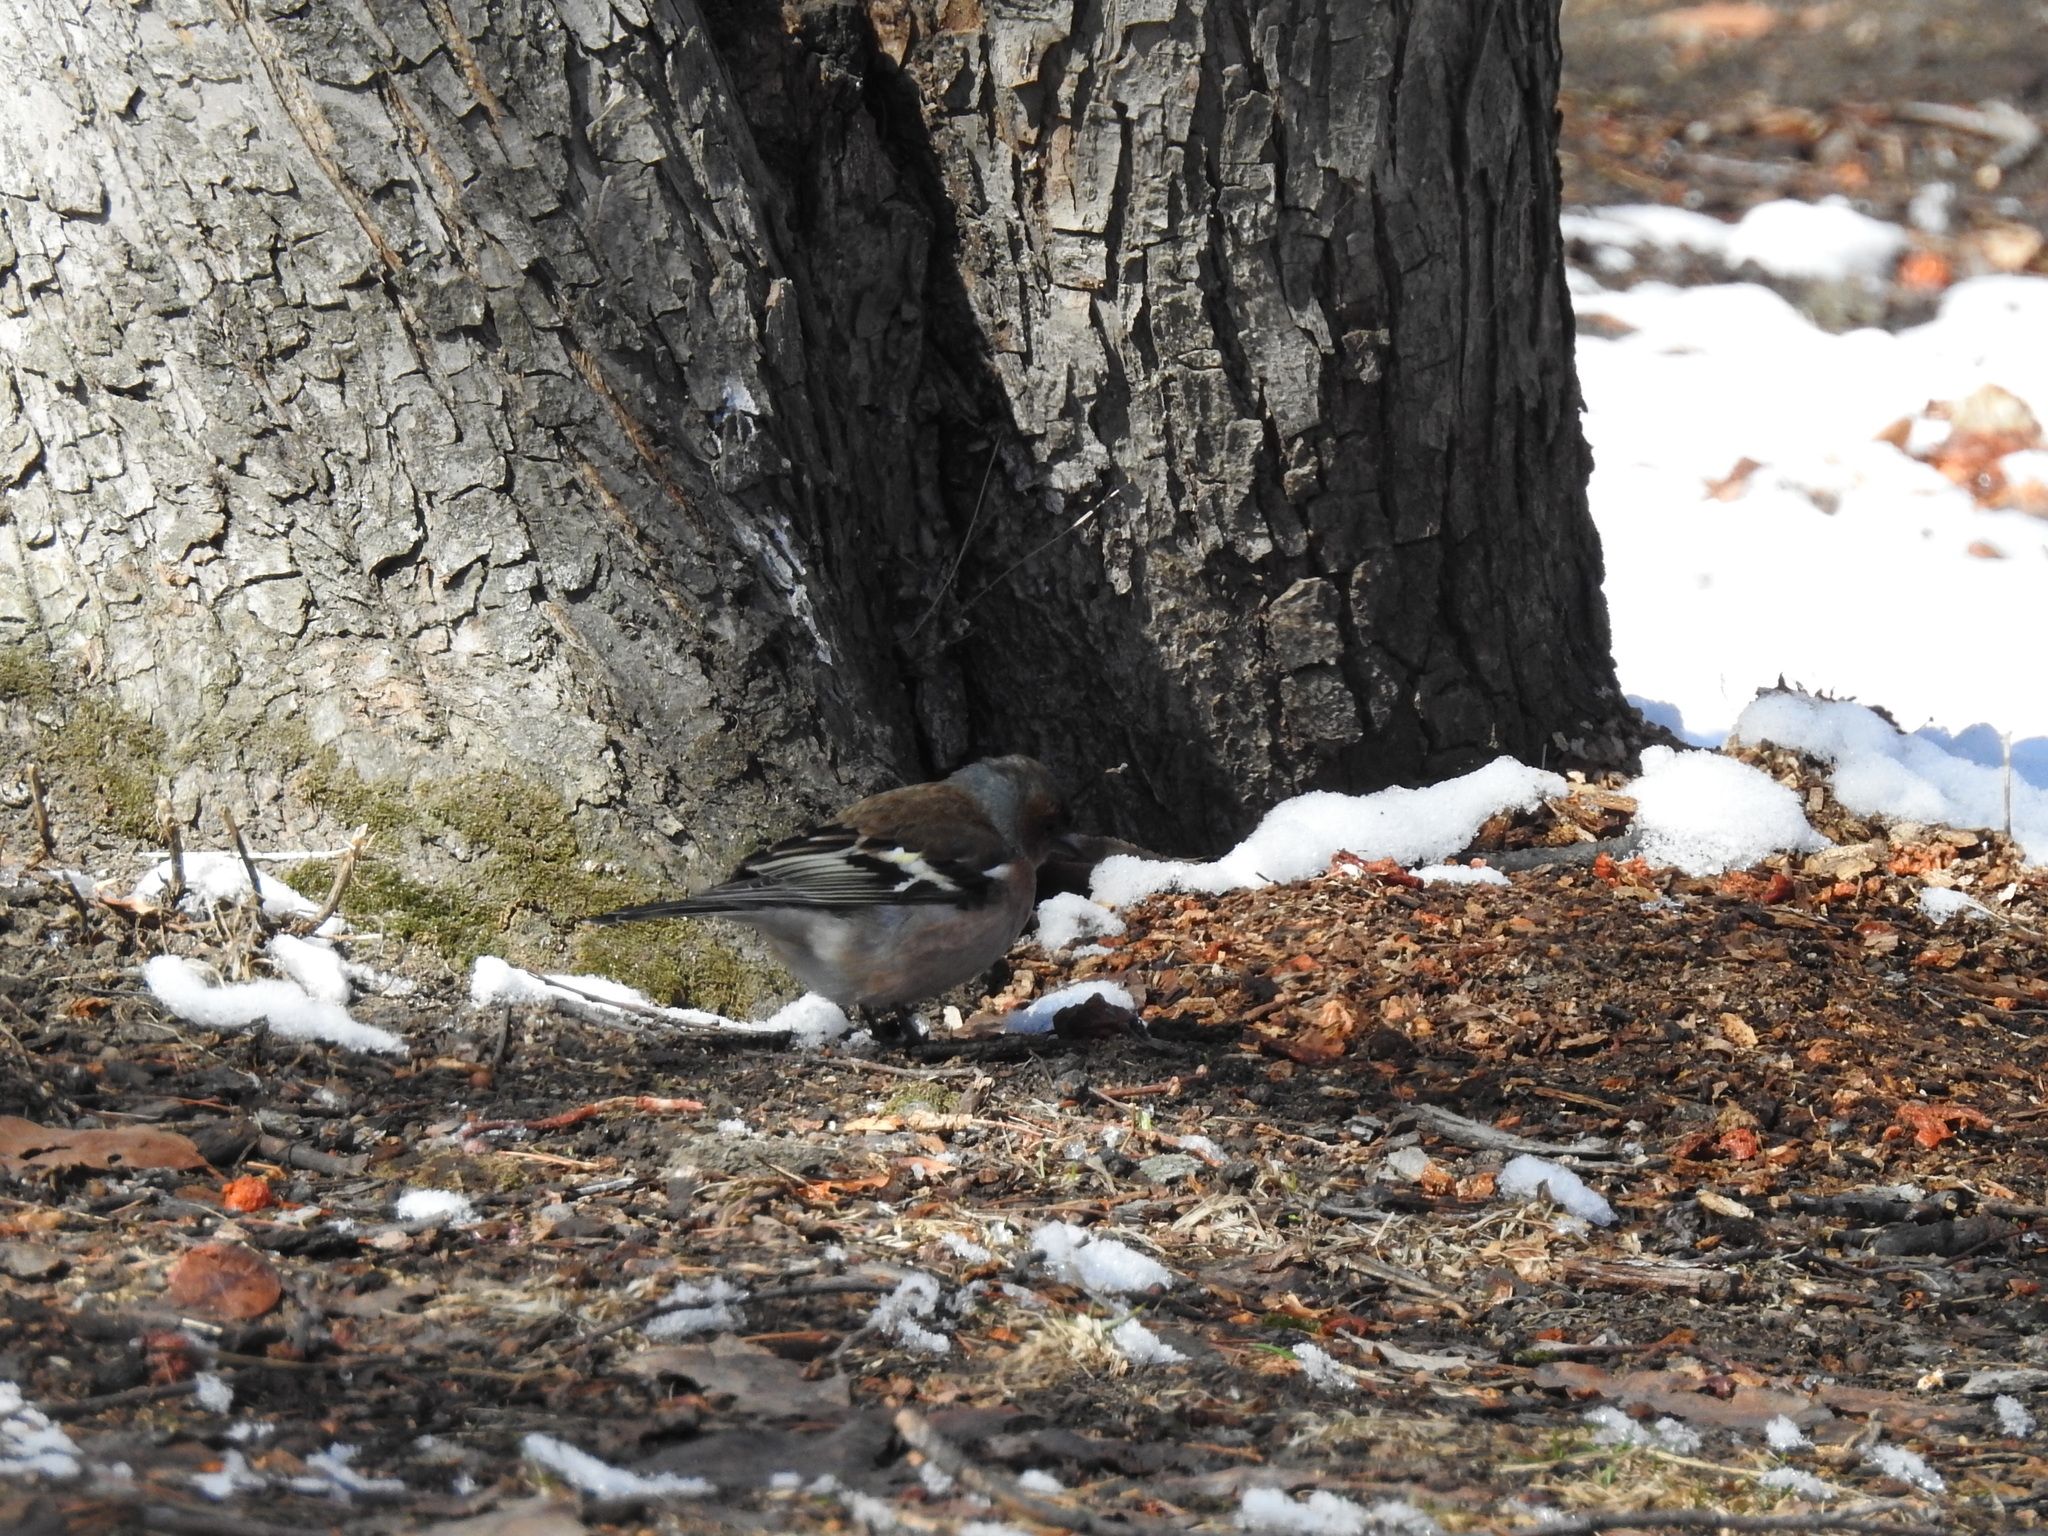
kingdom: Animalia
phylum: Chordata
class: Aves
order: Passeriformes
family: Fringillidae
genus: Fringilla
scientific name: Fringilla coelebs
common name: Common chaffinch
